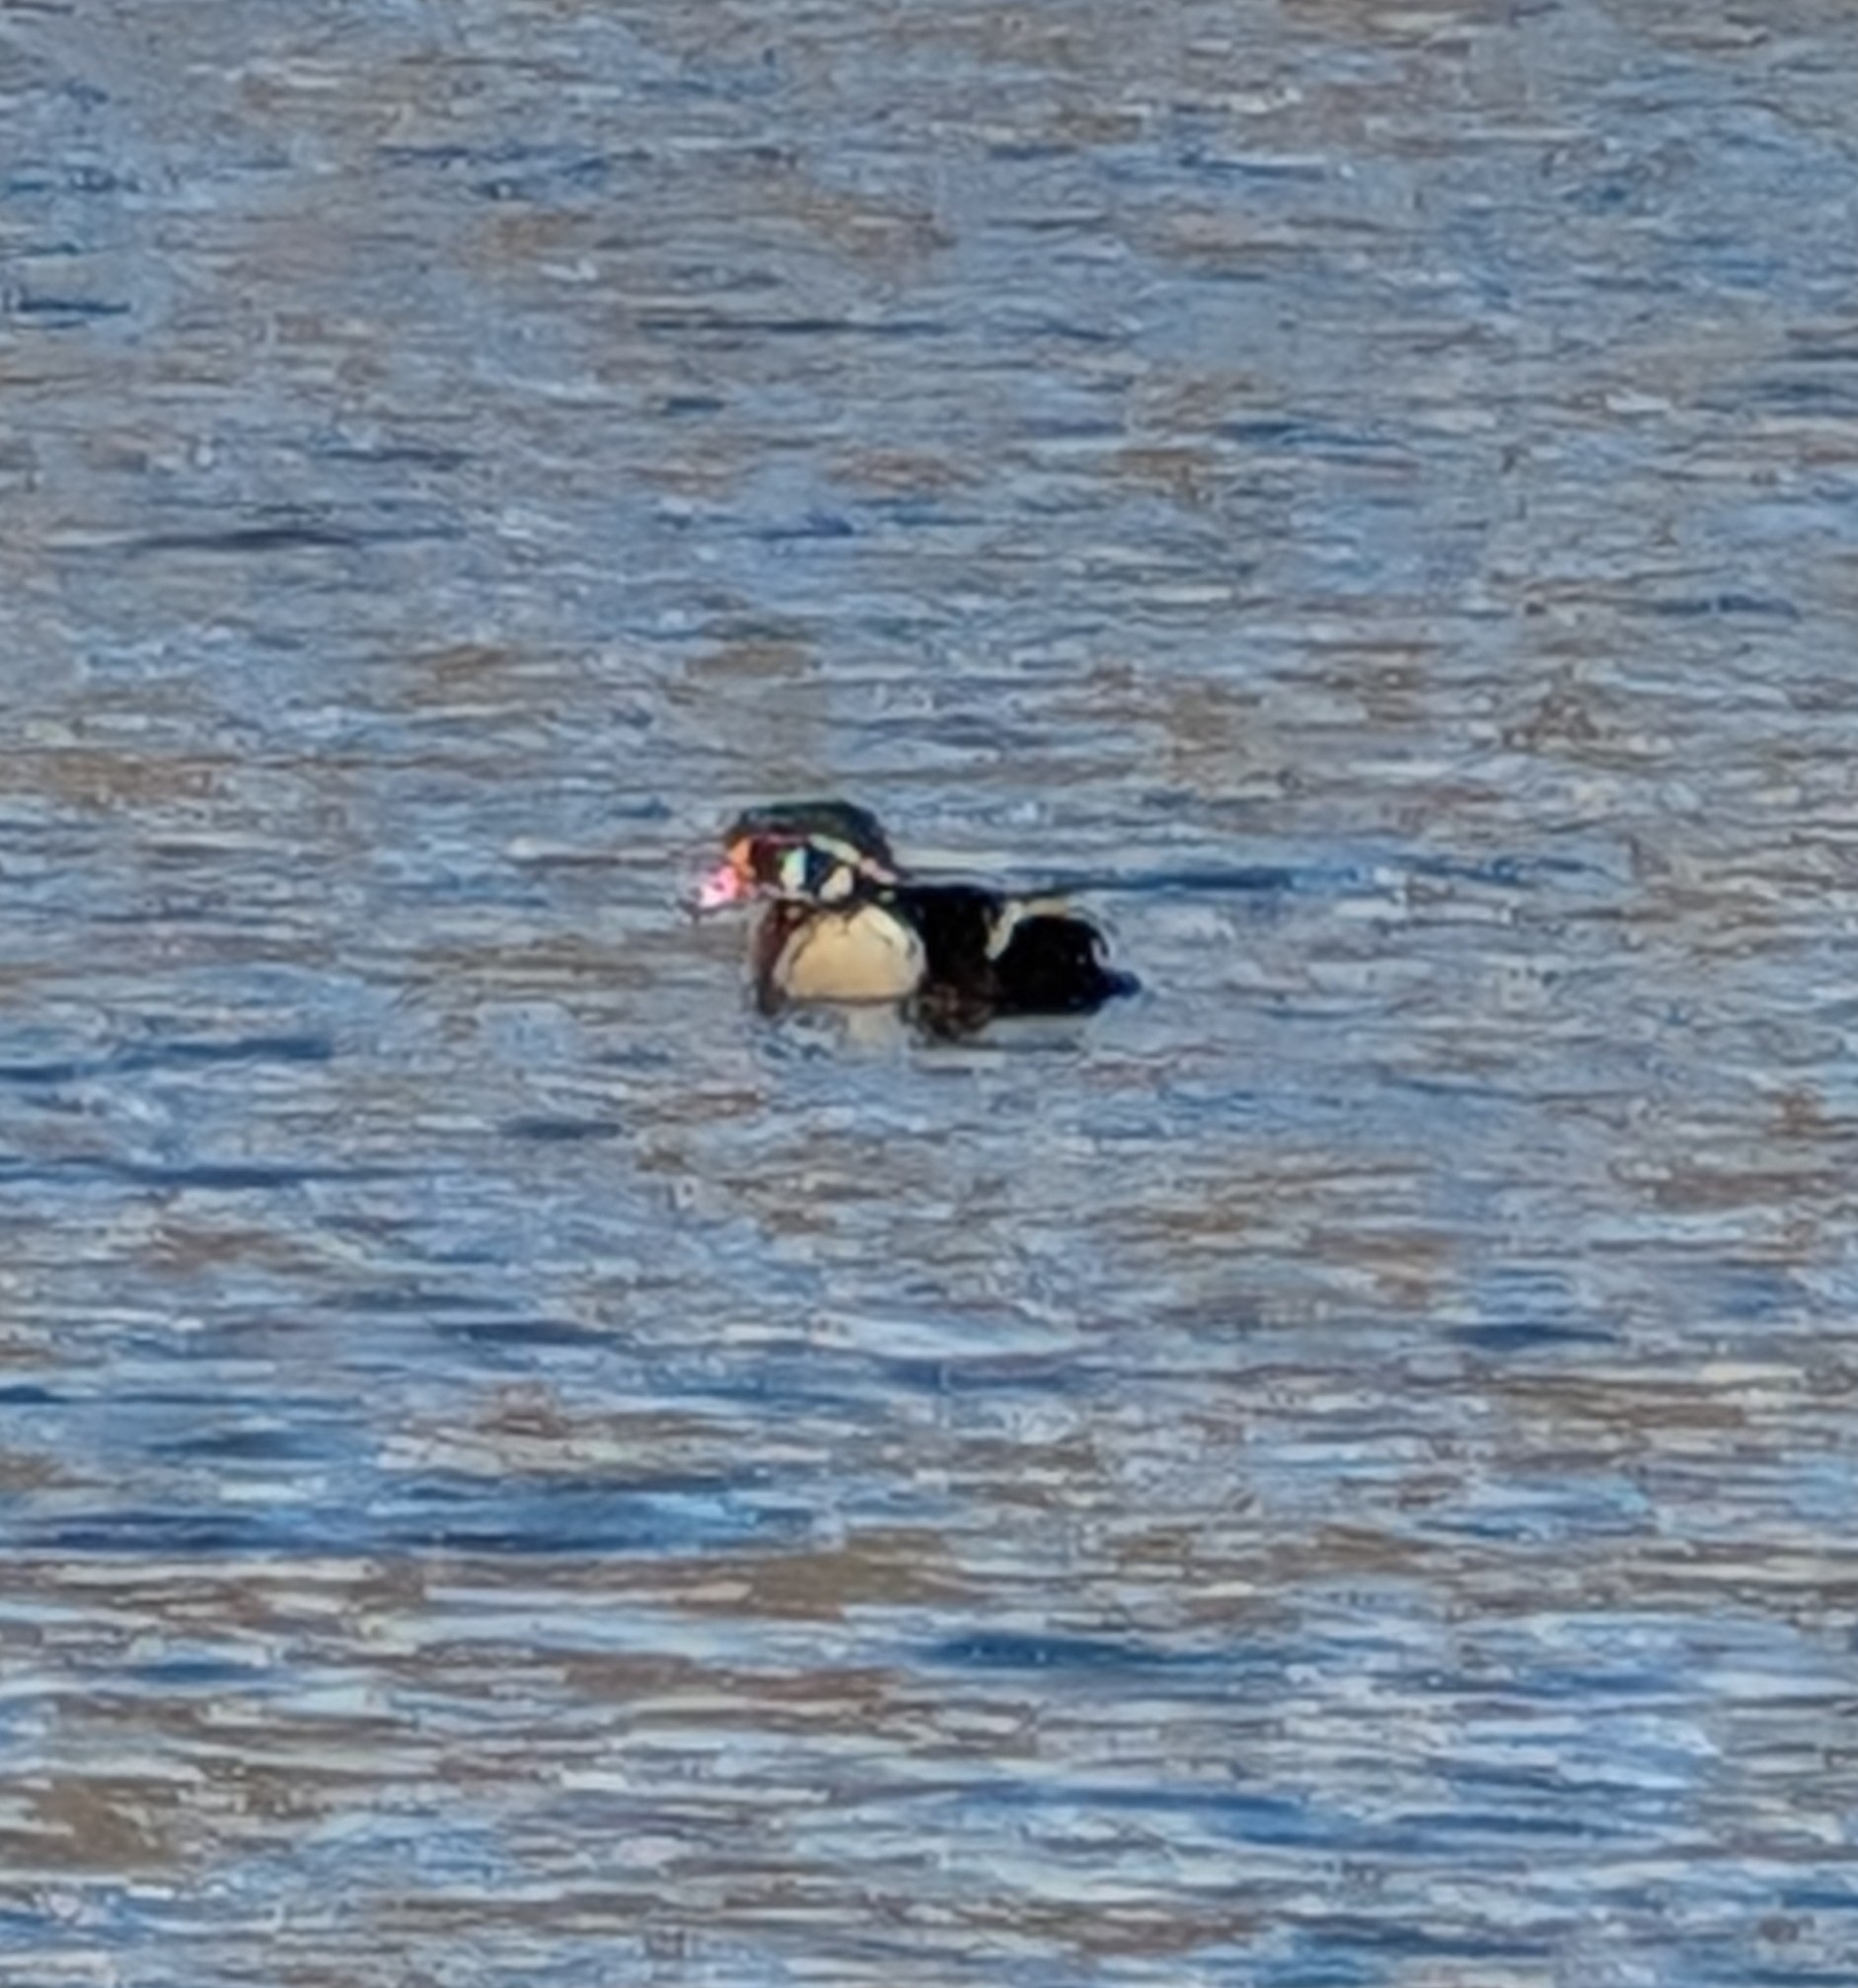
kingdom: Animalia
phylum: Chordata
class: Aves
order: Anseriformes
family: Anatidae
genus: Aix
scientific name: Aix sponsa
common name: Wood duck
